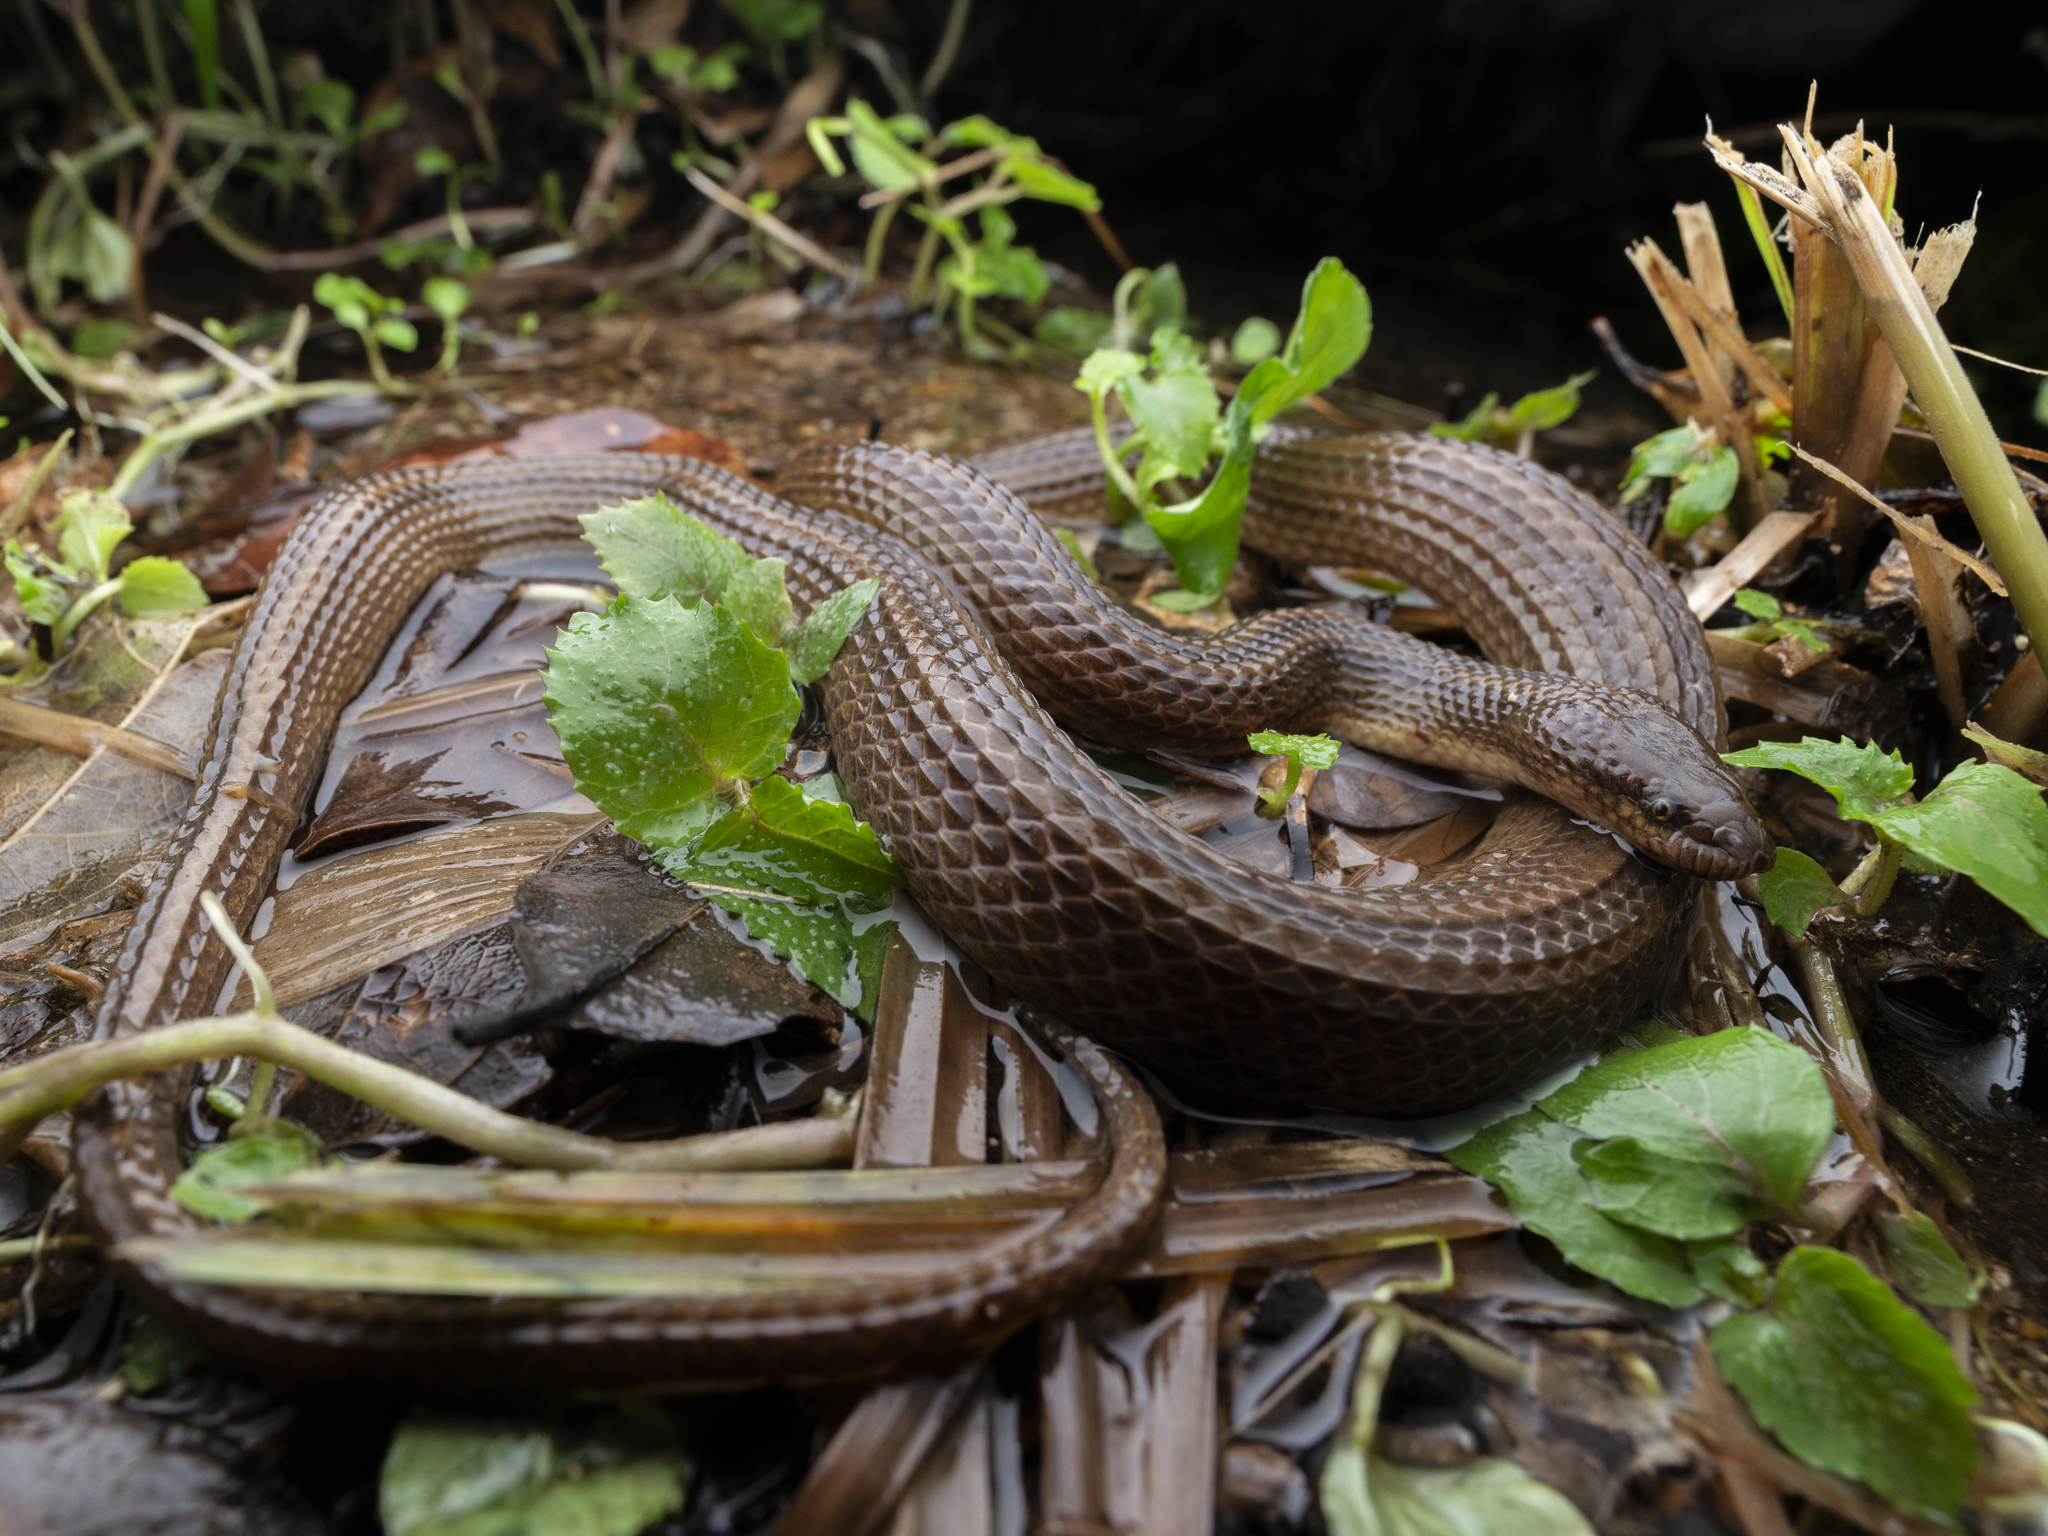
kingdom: Animalia
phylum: Chordata
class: Squamata
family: Colubridae
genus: Opisthotropis
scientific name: Opisthotropis kuatunensis
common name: Chinese mountain keelback
